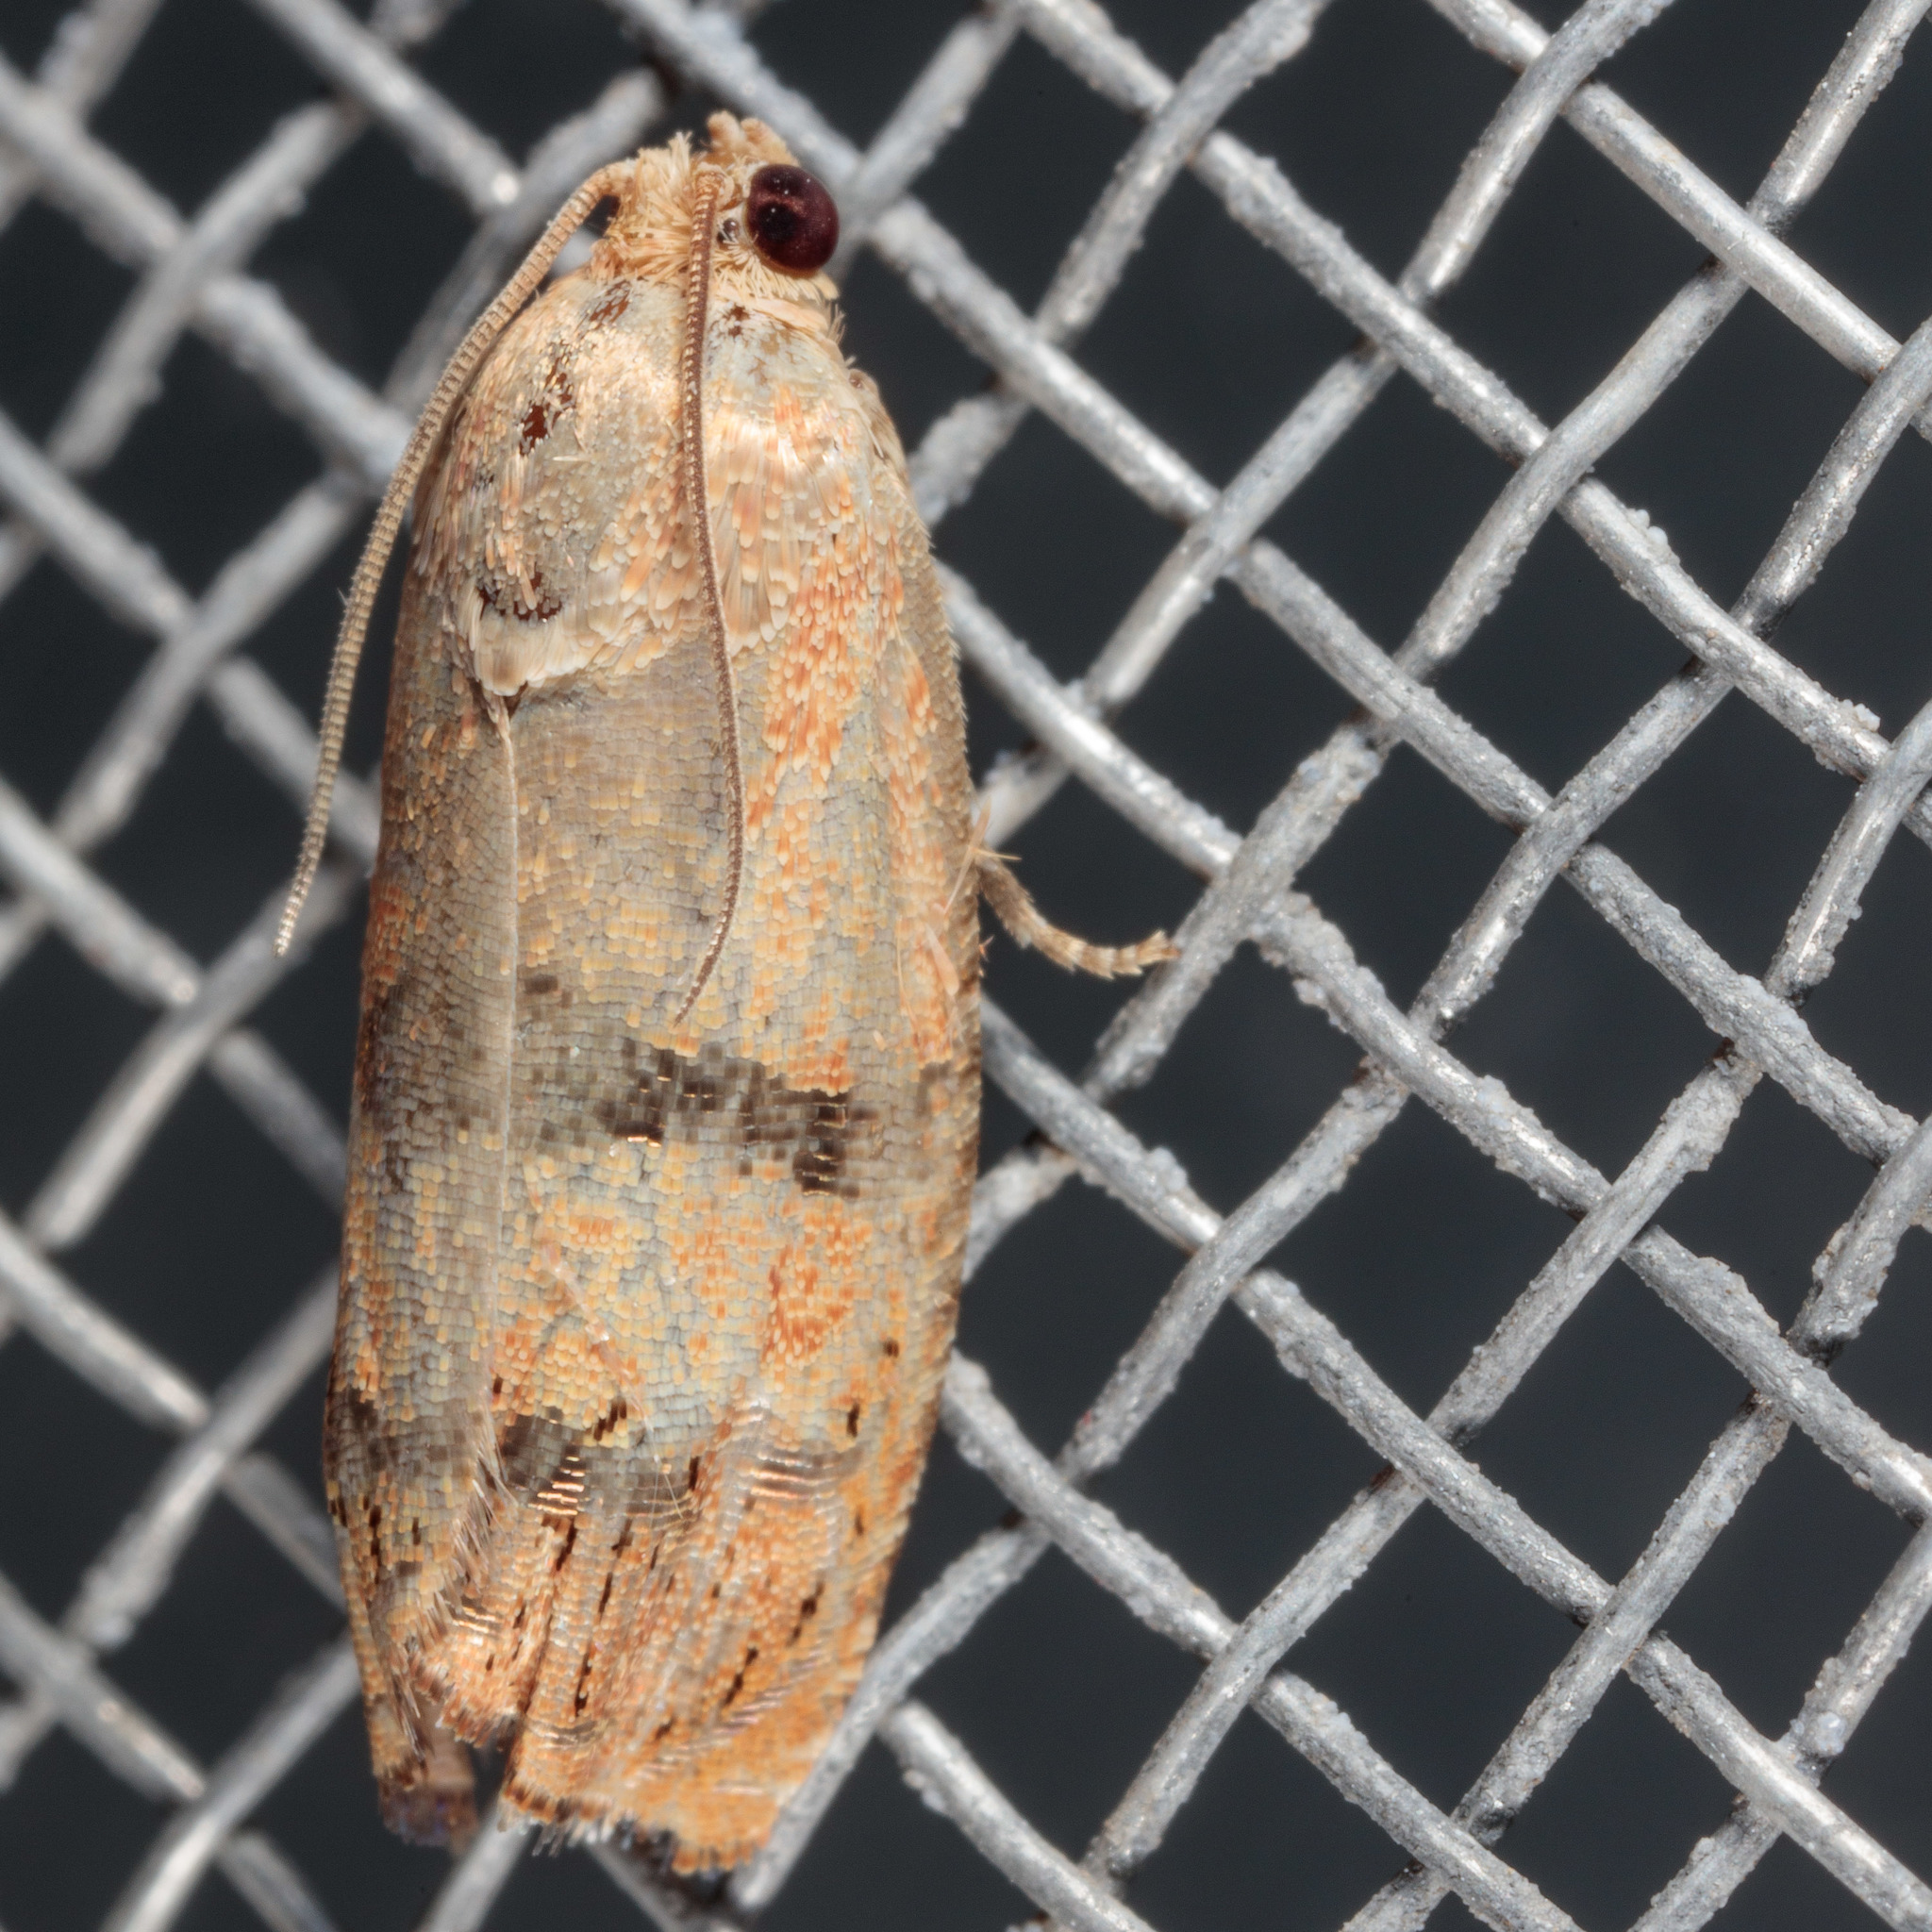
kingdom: Animalia
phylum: Arthropoda
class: Insecta
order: Lepidoptera
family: Tortricidae
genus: Cydia
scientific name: Cydia latiferreana
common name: Filbertworm moth
